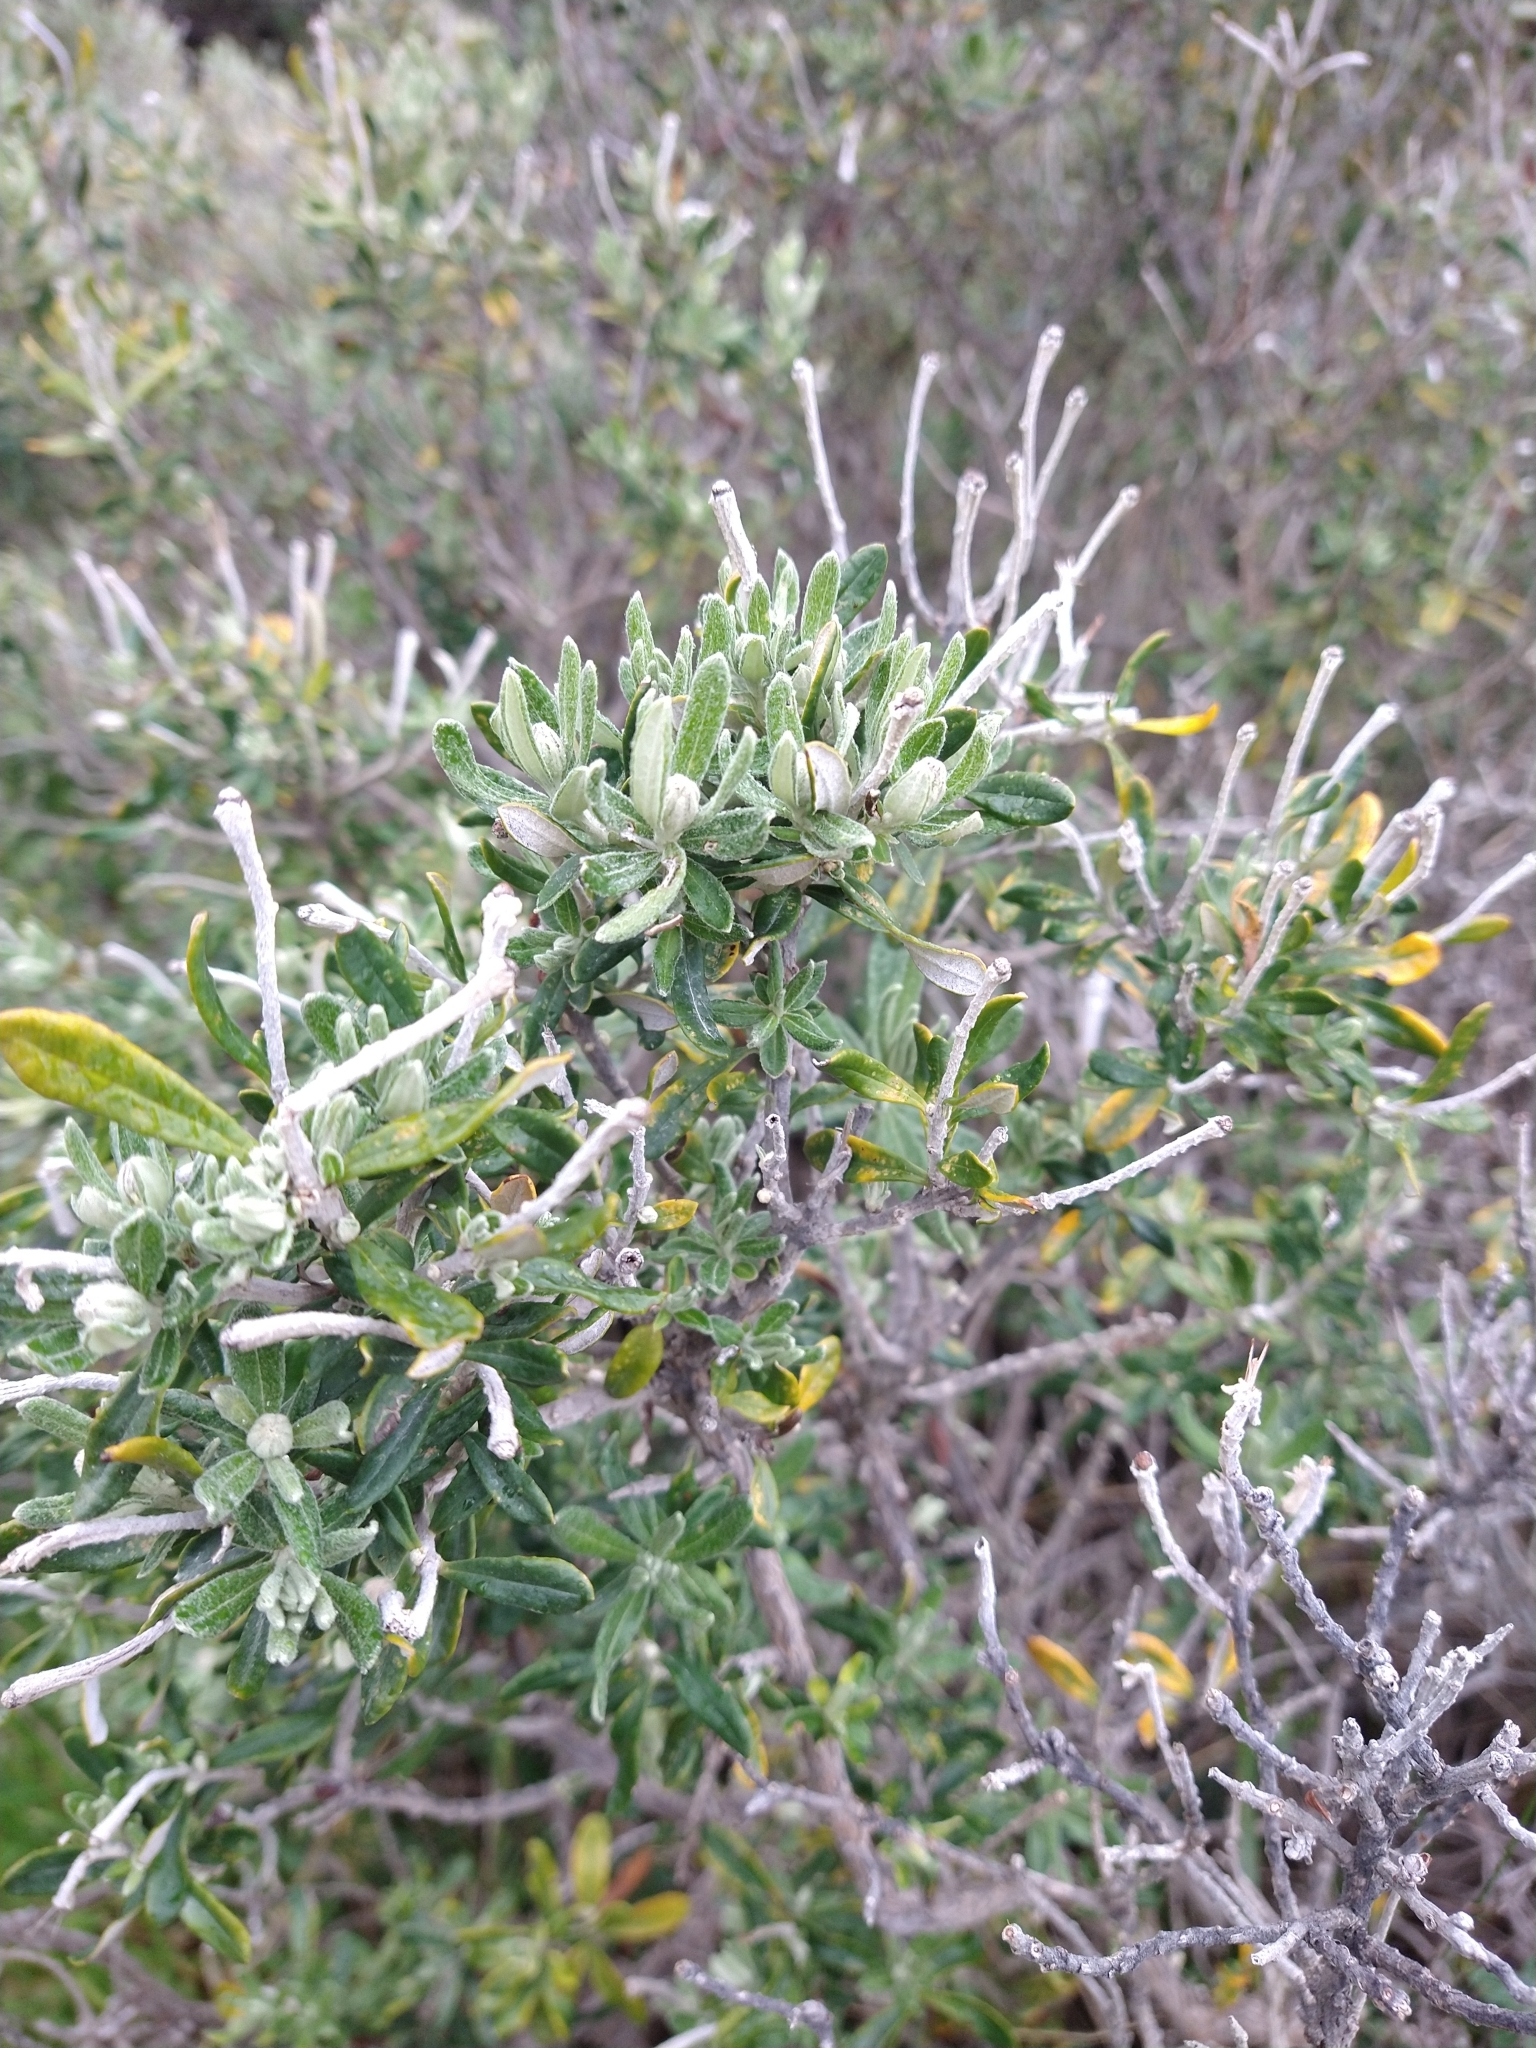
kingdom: Plantae
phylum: Tracheophyta
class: Magnoliopsida
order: Asterales
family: Asteraceae
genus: Chiliotrichum
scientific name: Chiliotrichum diffusum
